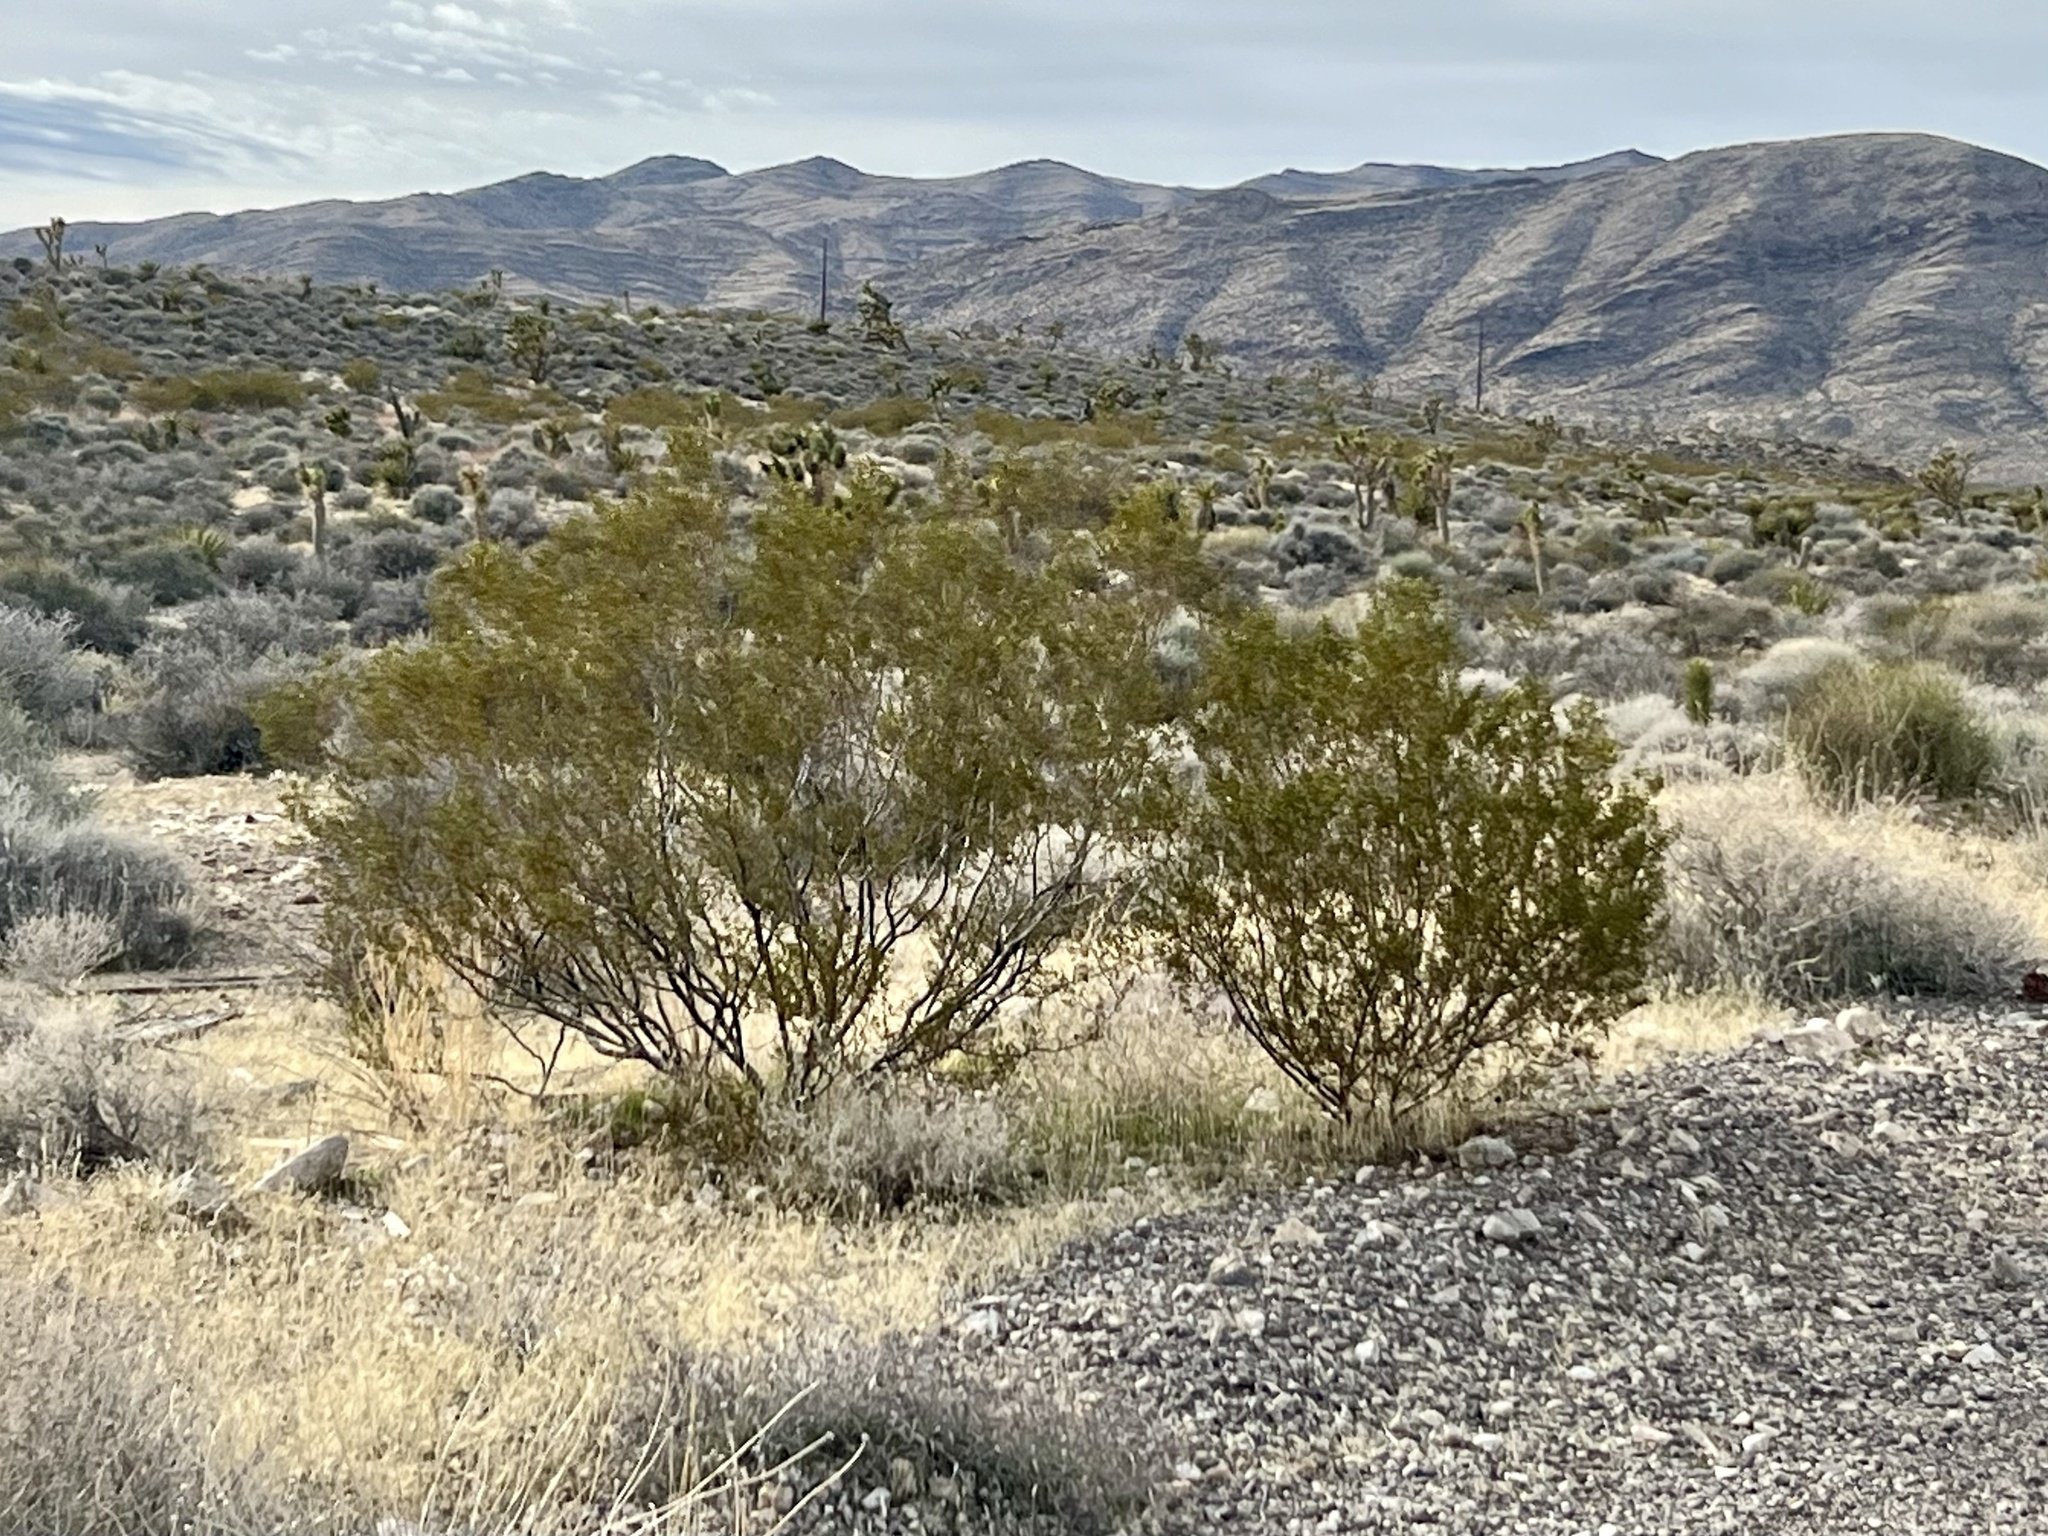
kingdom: Plantae
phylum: Tracheophyta
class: Magnoliopsida
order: Zygophyllales
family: Zygophyllaceae
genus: Larrea
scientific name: Larrea tridentata
